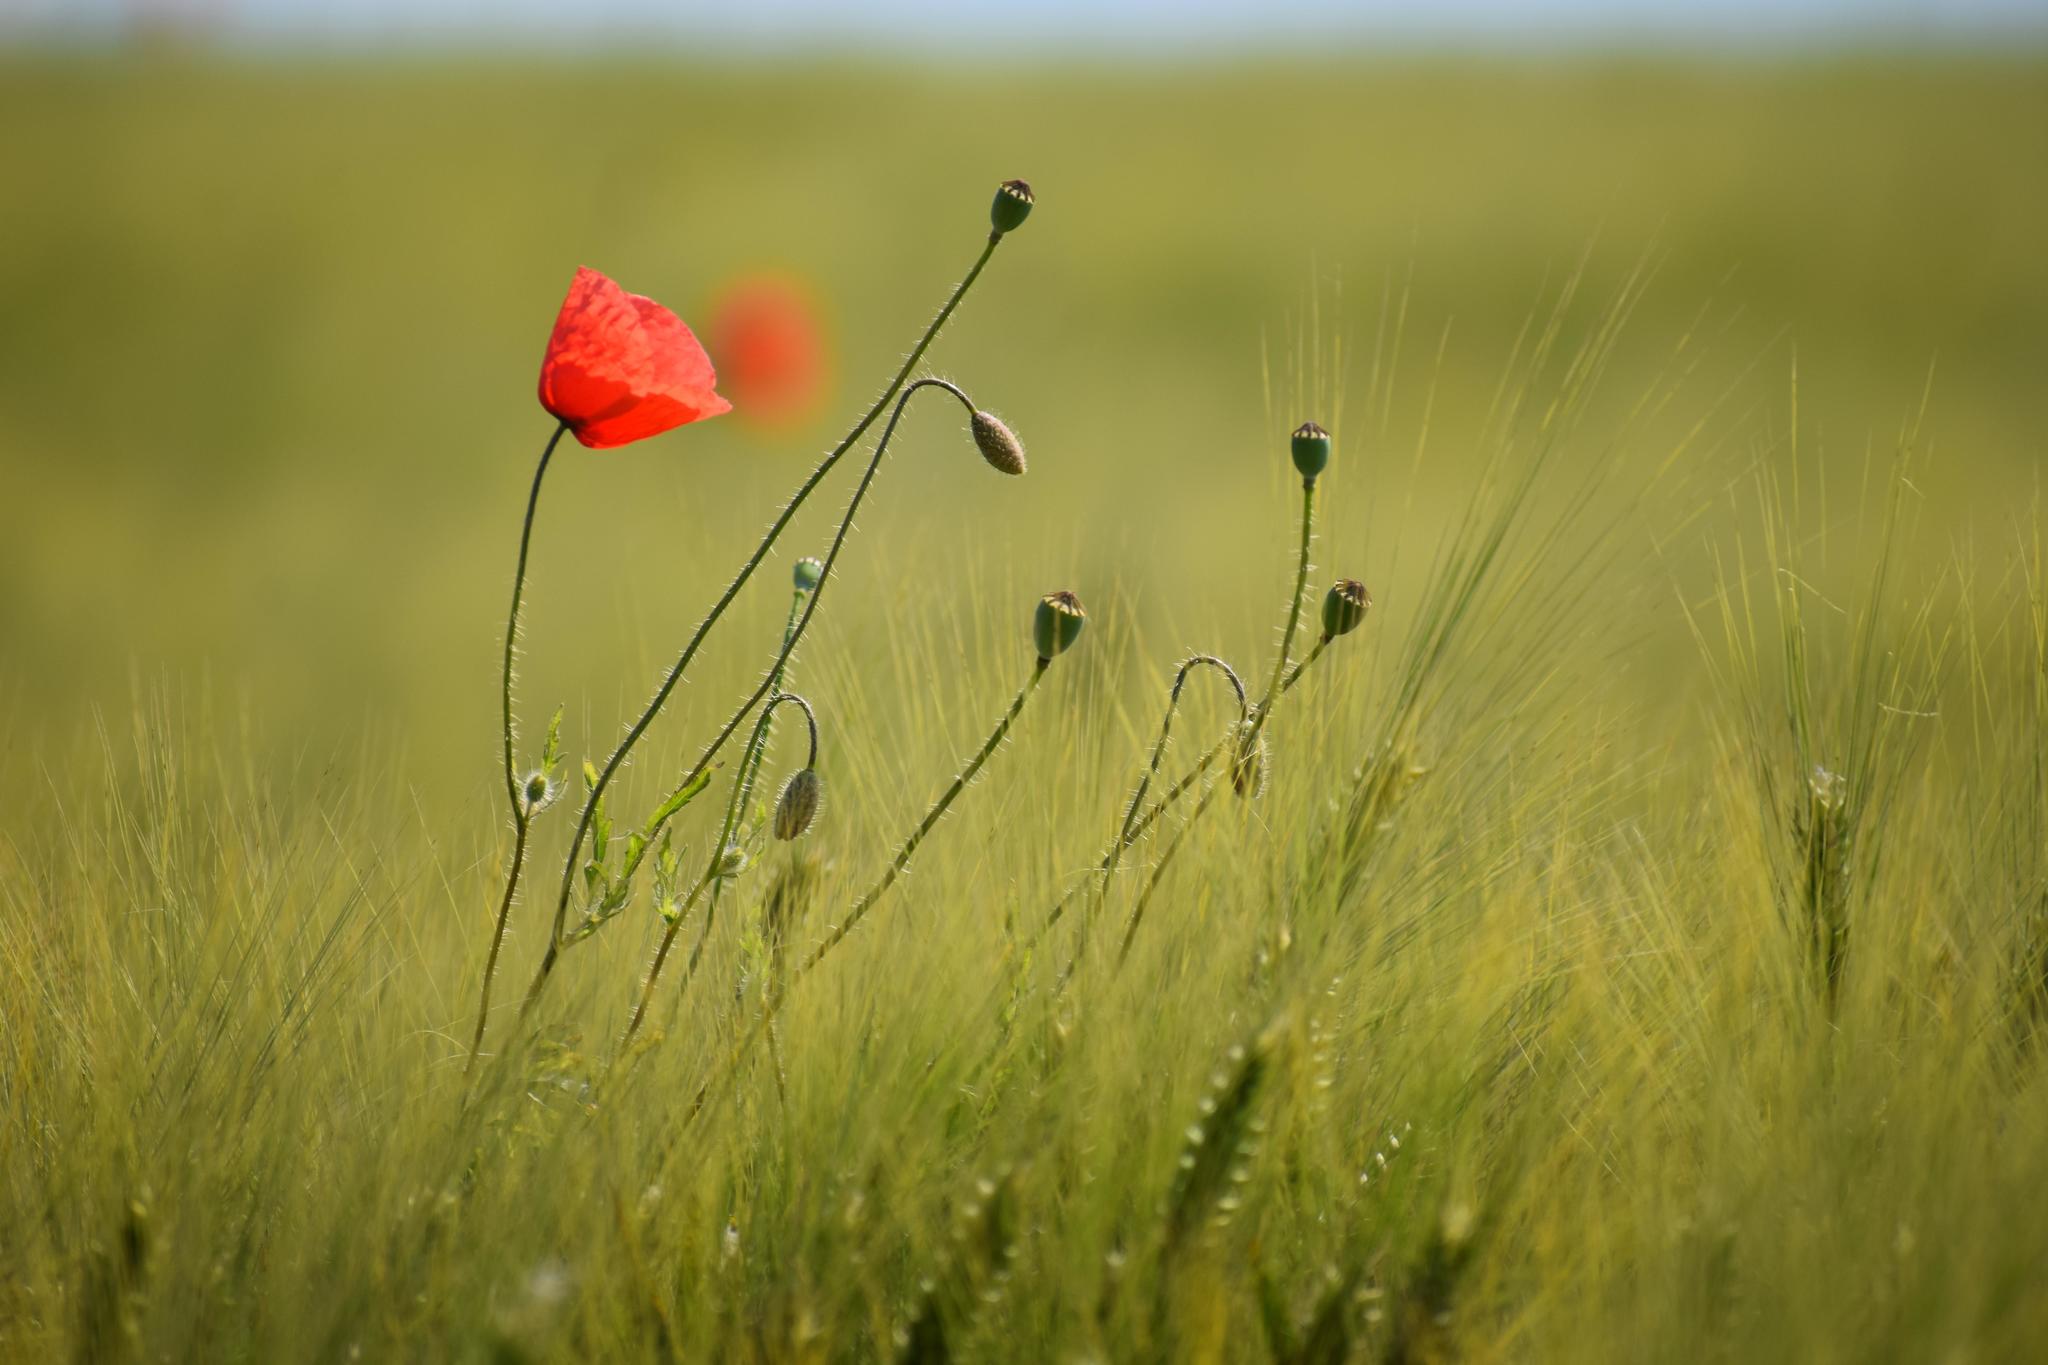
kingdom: Plantae
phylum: Tracheophyta
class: Magnoliopsida
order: Ranunculales
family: Papaveraceae
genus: Papaver
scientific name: Papaver rhoeas
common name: Corn poppy
